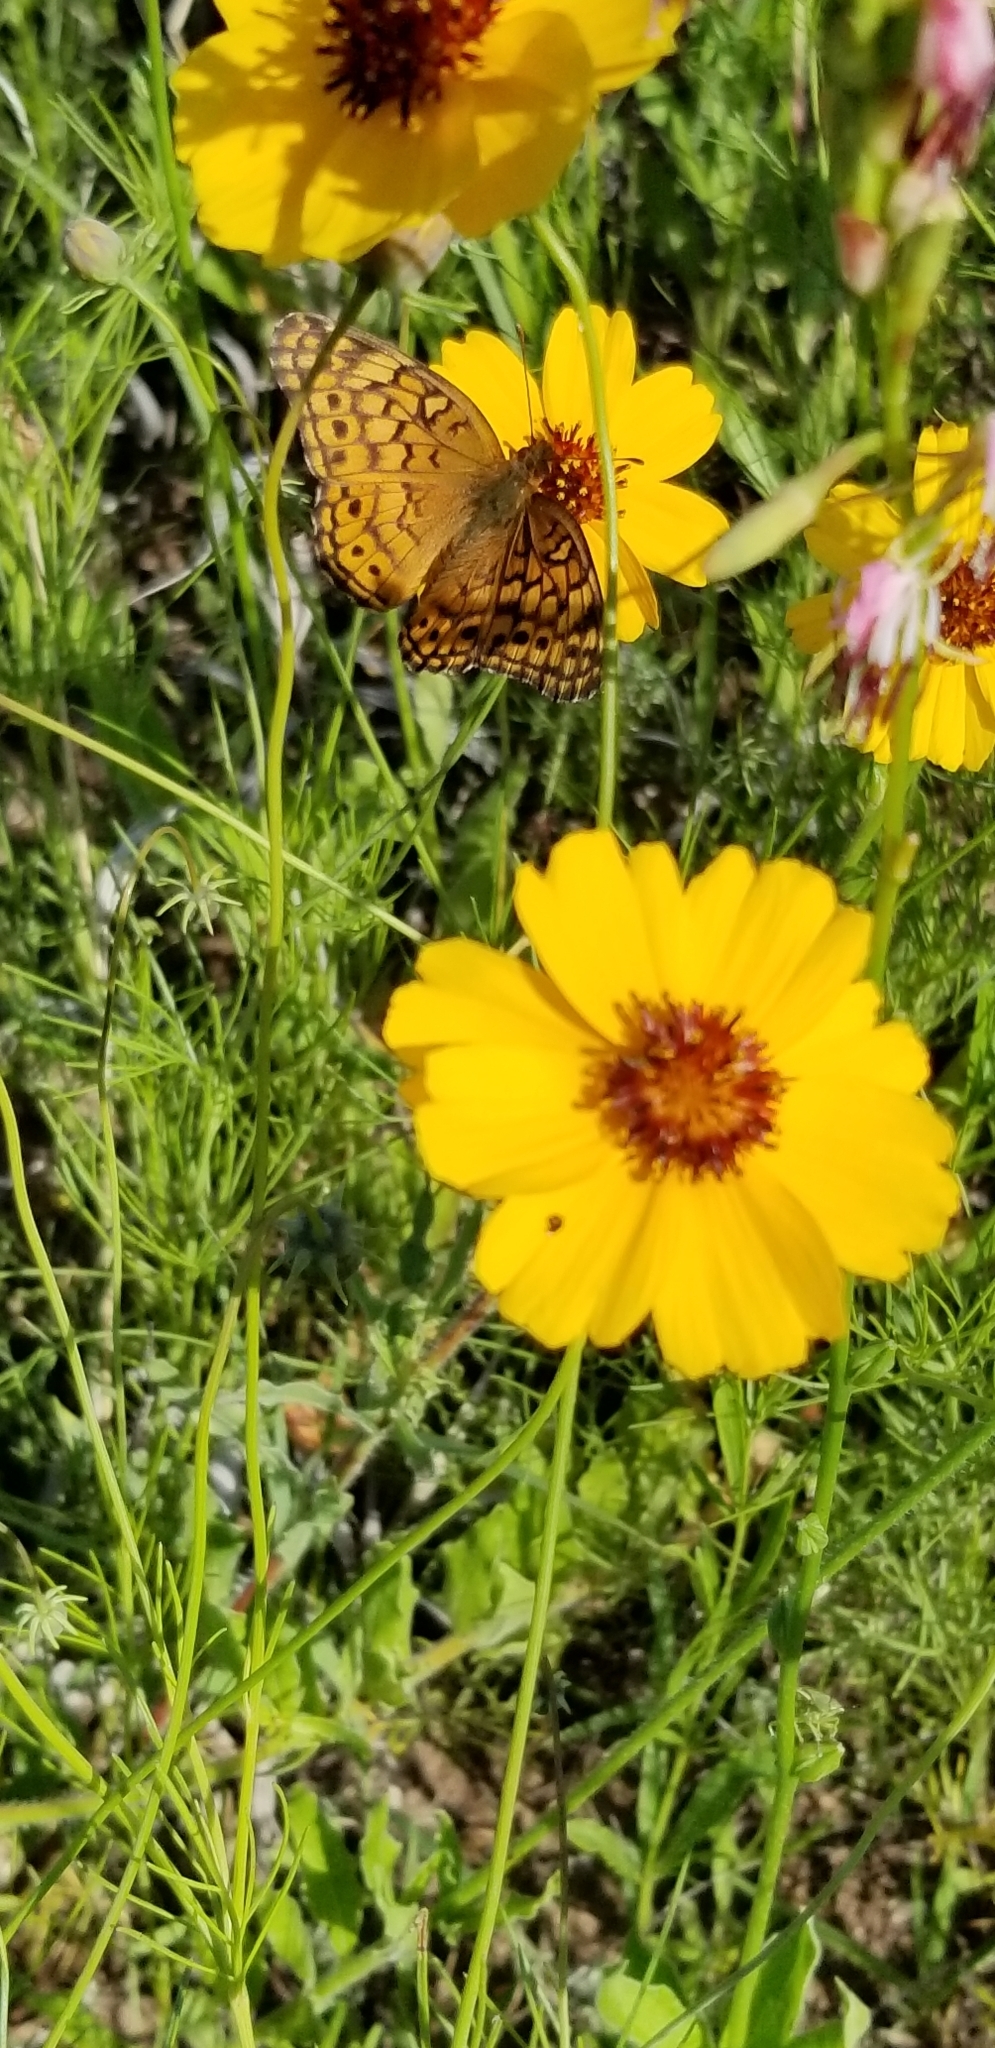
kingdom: Animalia
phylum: Arthropoda
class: Insecta
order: Lepidoptera
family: Nymphalidae
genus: Euptoieta
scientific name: Euptoieta claudia
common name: Variegated fritillary
